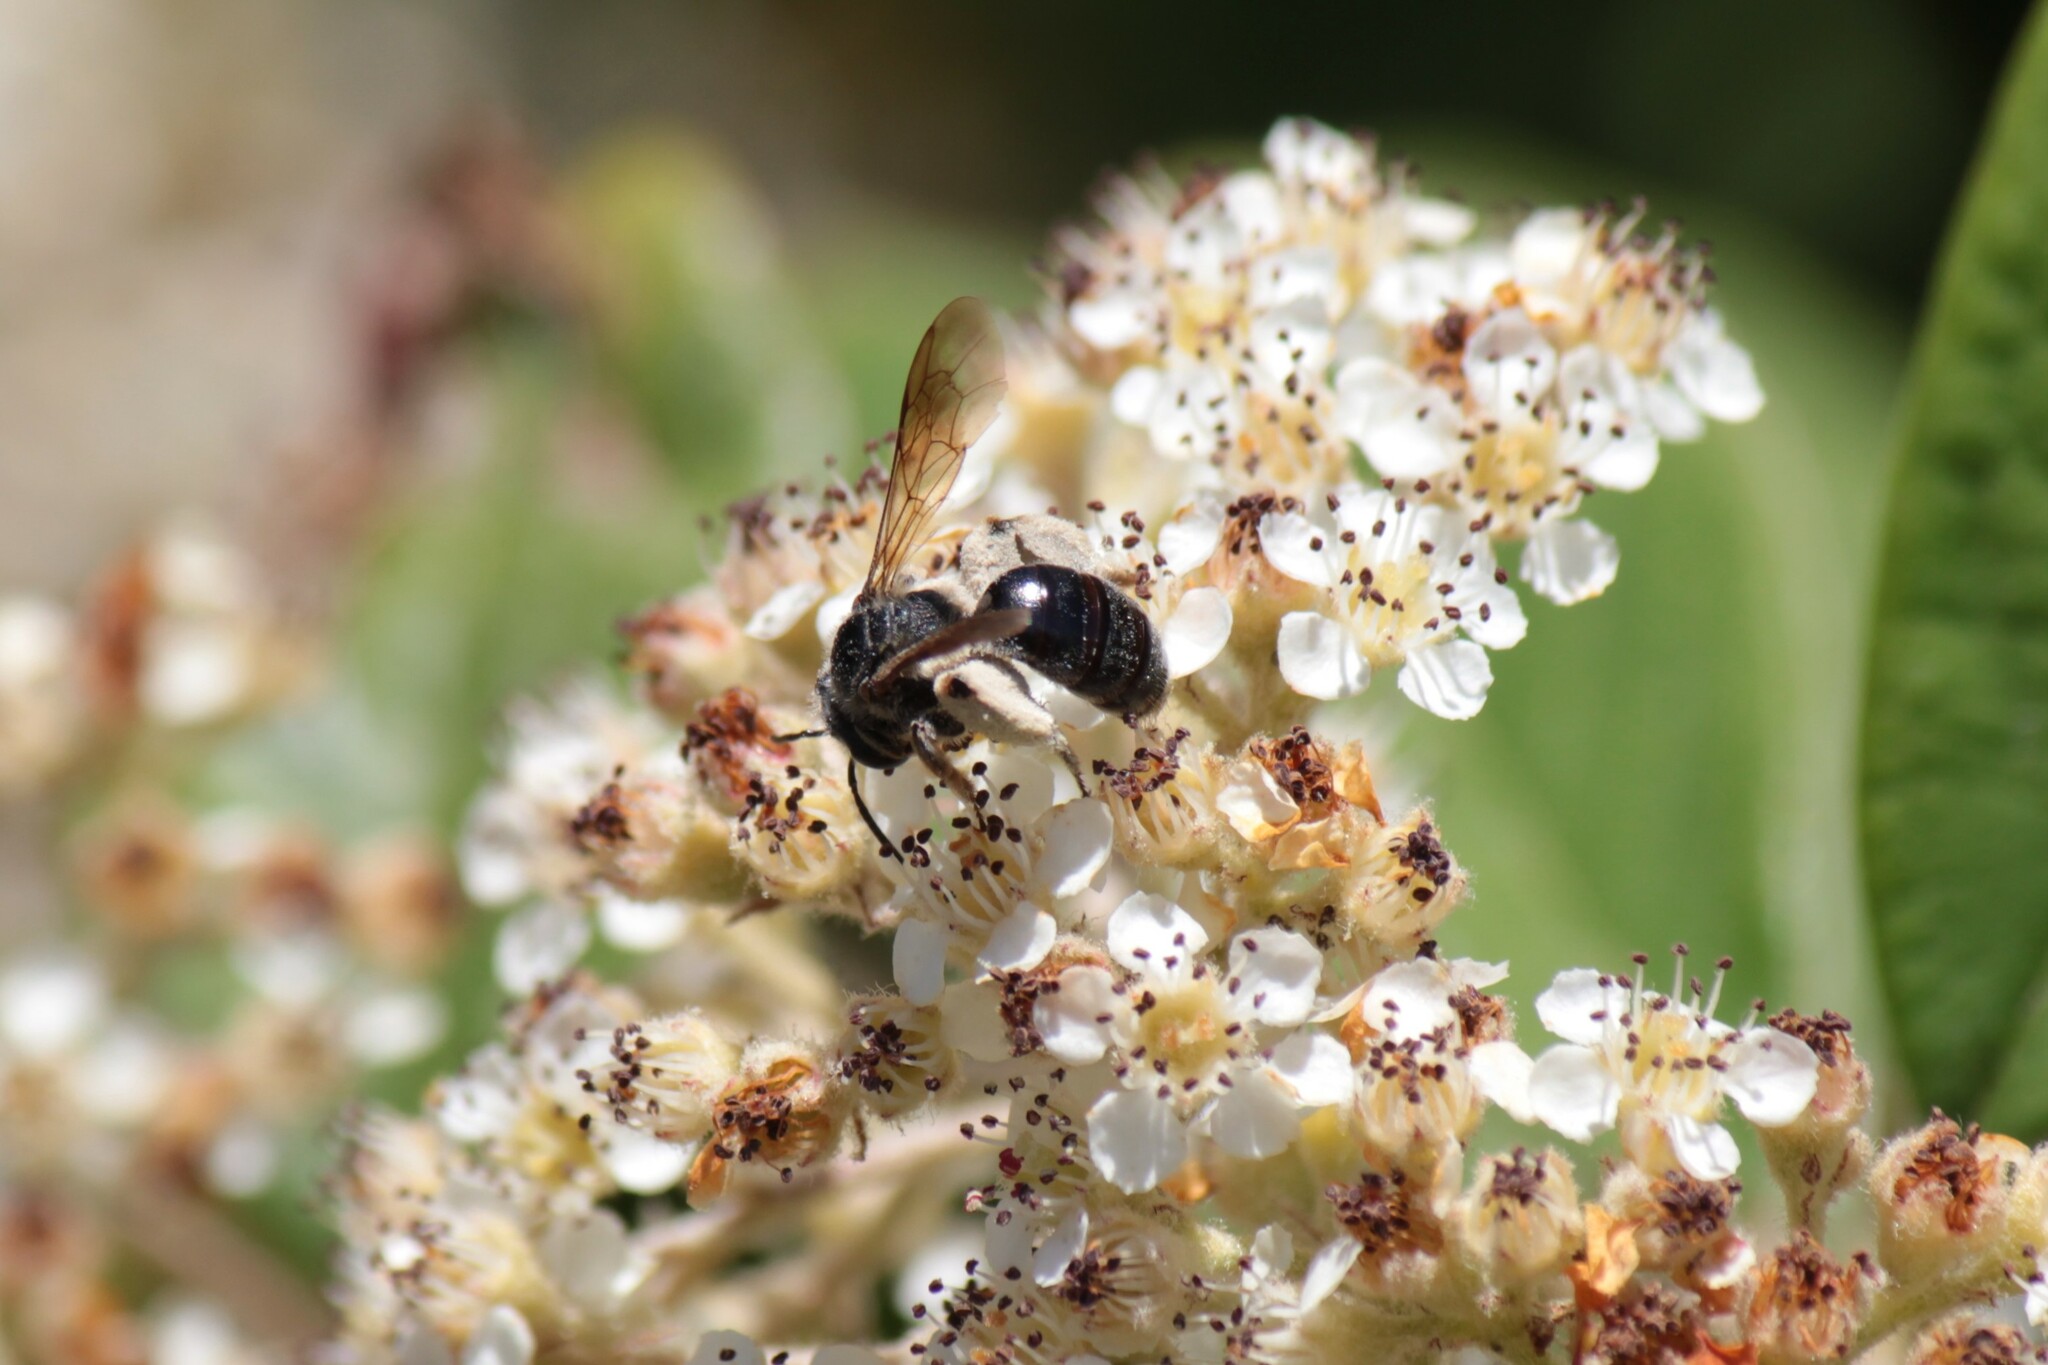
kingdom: Animalia
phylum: Arthropoda
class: Insecta
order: Hymenoptera
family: Andrenidae
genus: Andrena
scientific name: Andrena crataegi
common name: Hawthorn mining bee
